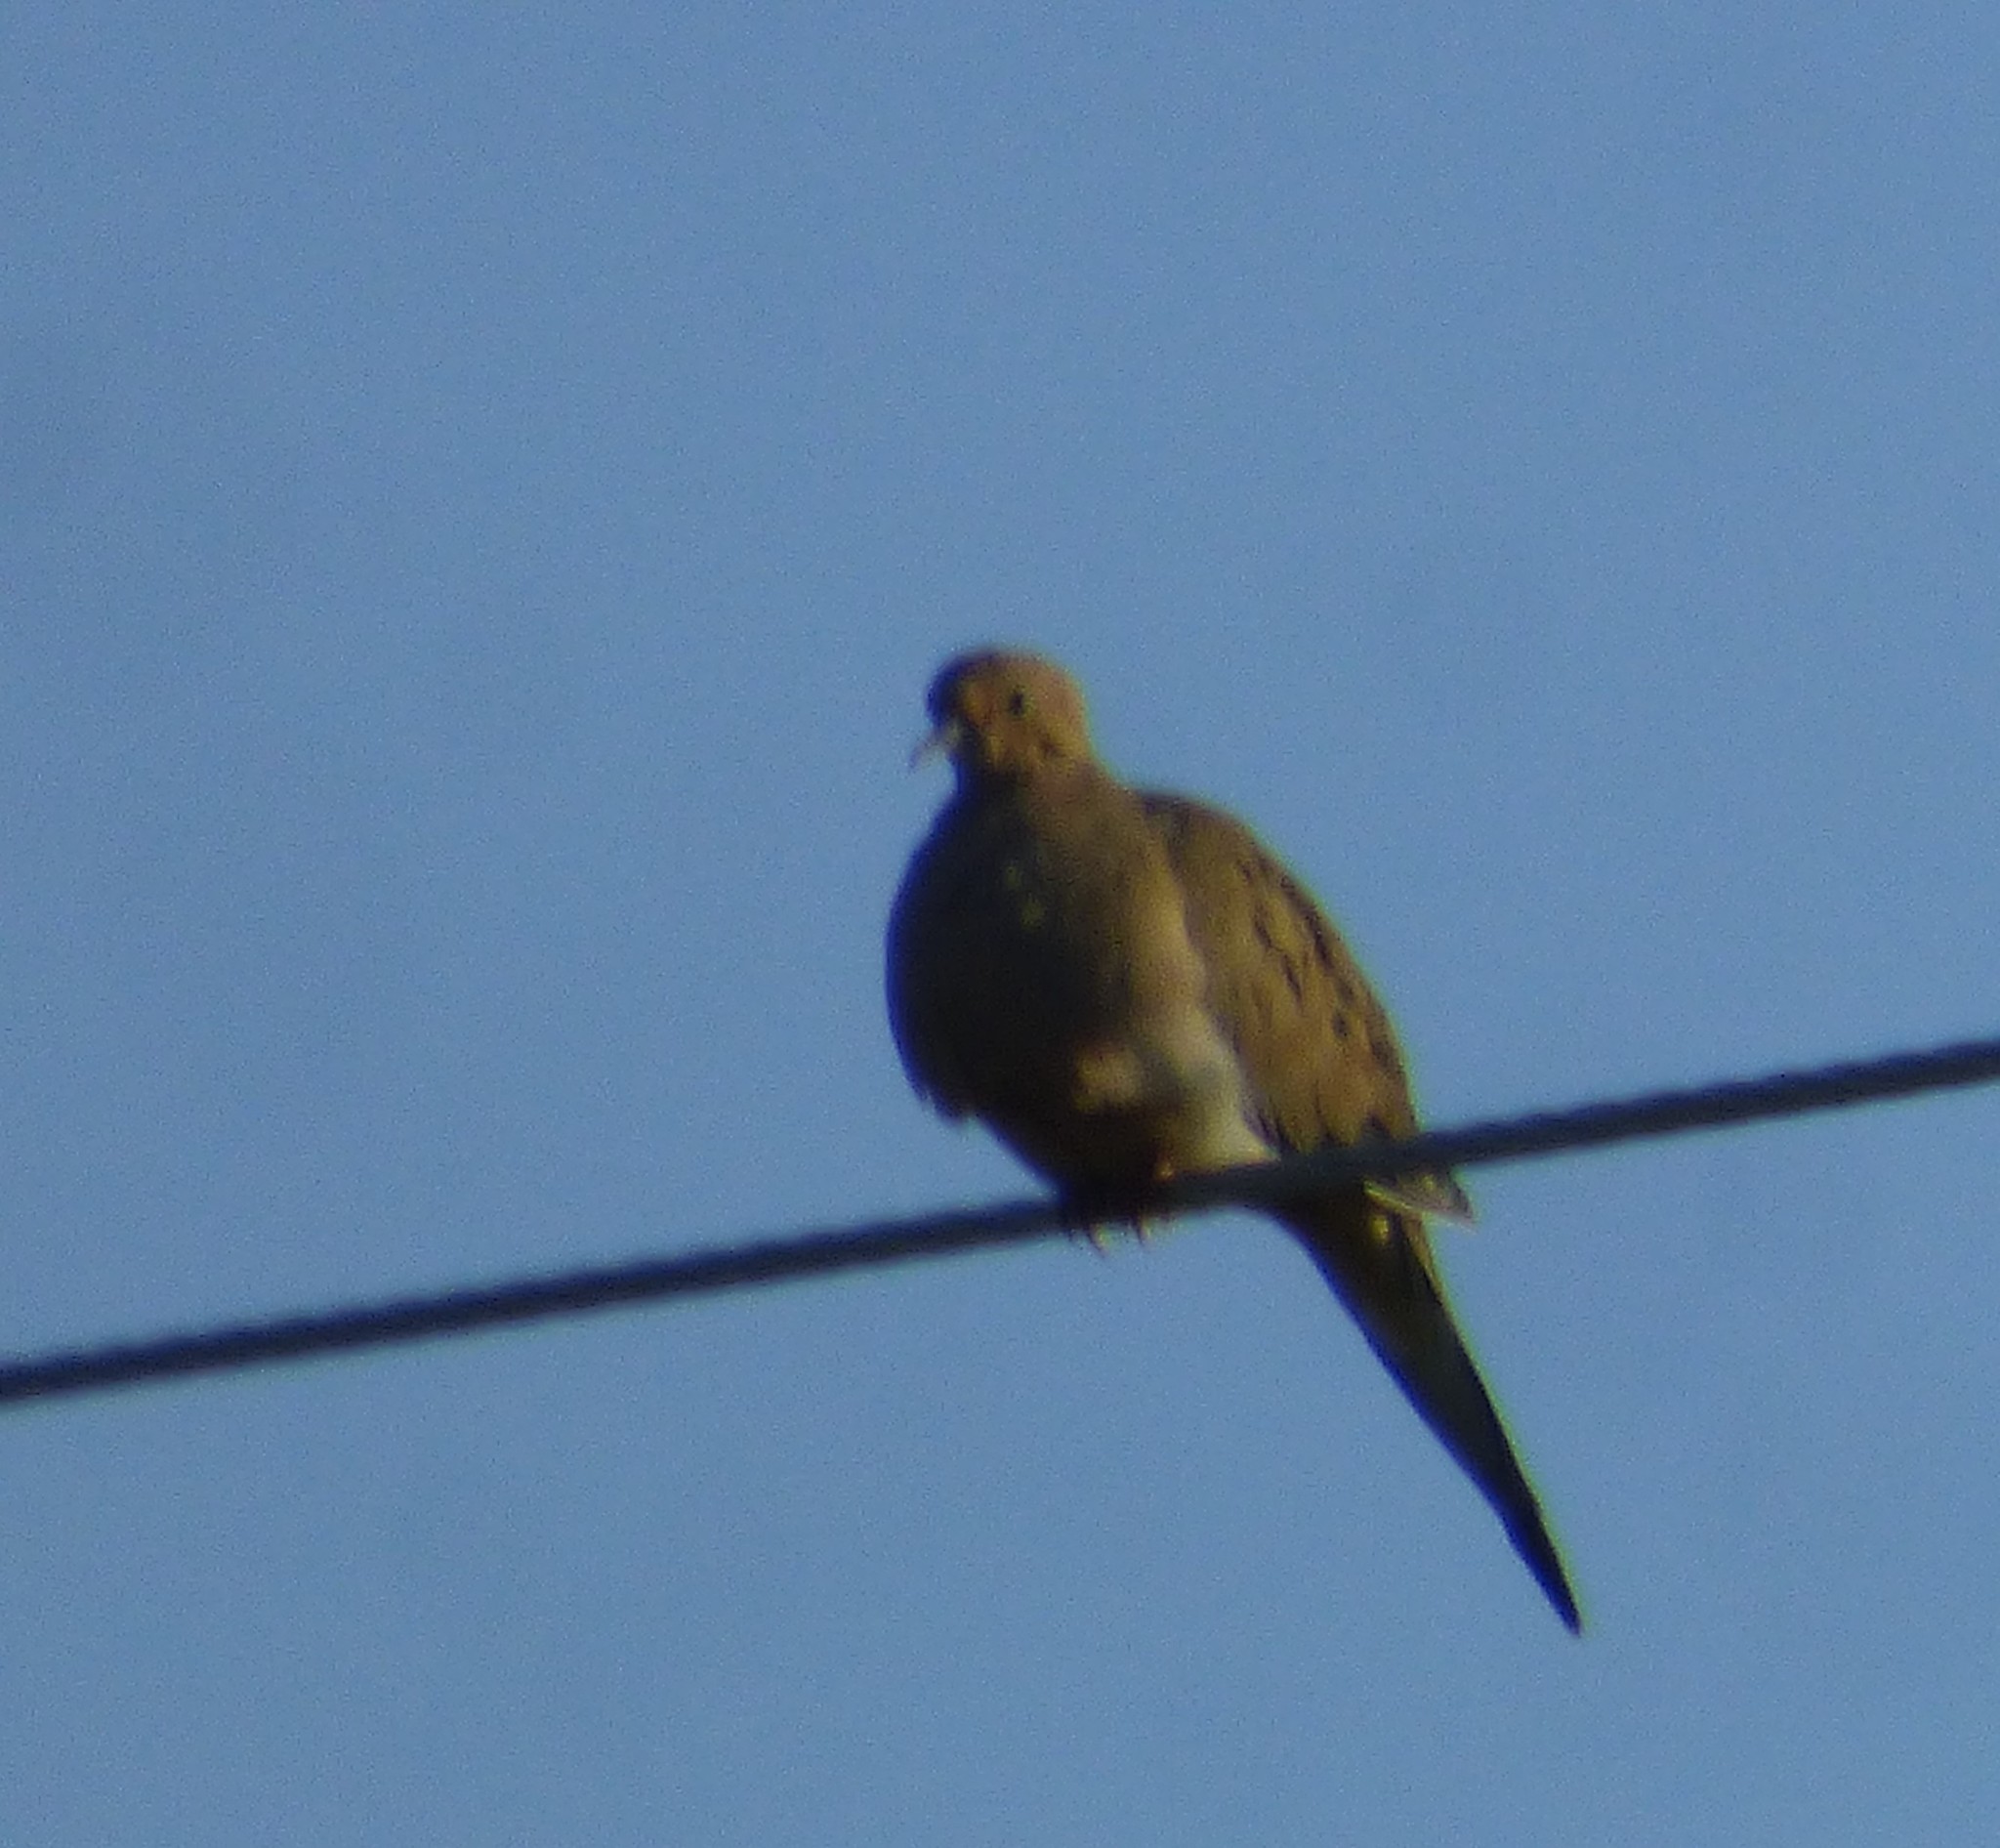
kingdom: Animalia
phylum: Chordata
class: Aves
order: Columbiformes
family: Columbidae
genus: Zenaida
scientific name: Zenaida macroura
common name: Mourning dove
